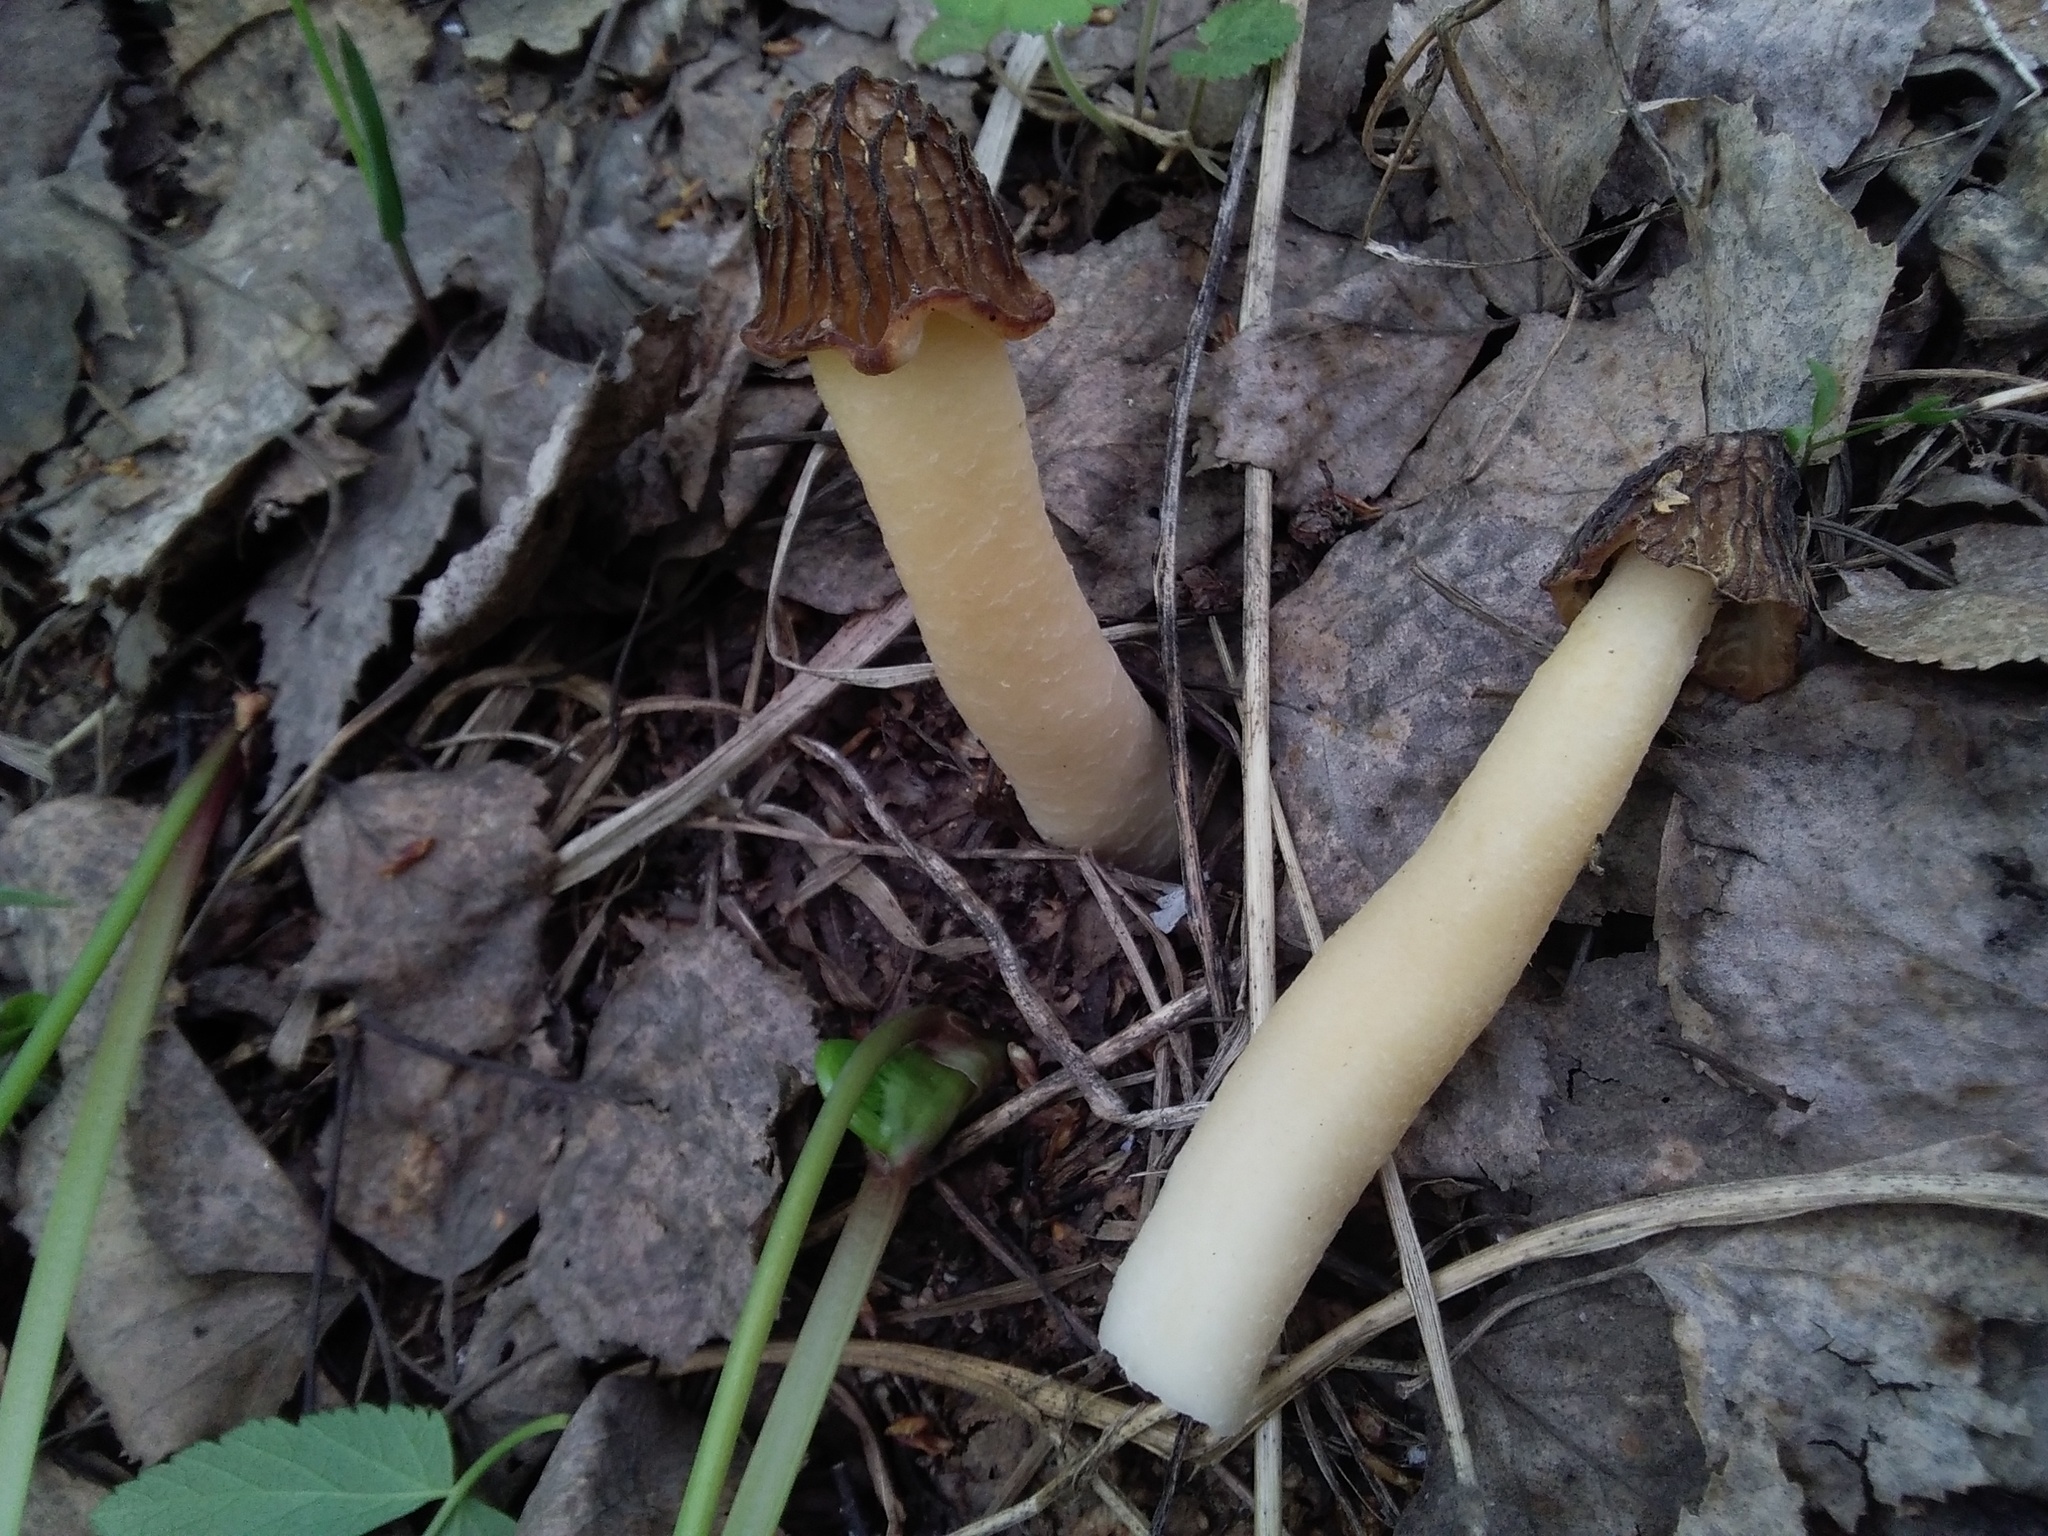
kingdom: Fungi
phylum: Ascomycota
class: Pezizomycetes
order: Pezizales
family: Morchellaceae
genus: Verpa
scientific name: Verpa bohemica
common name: Wrinkled thimble morel
